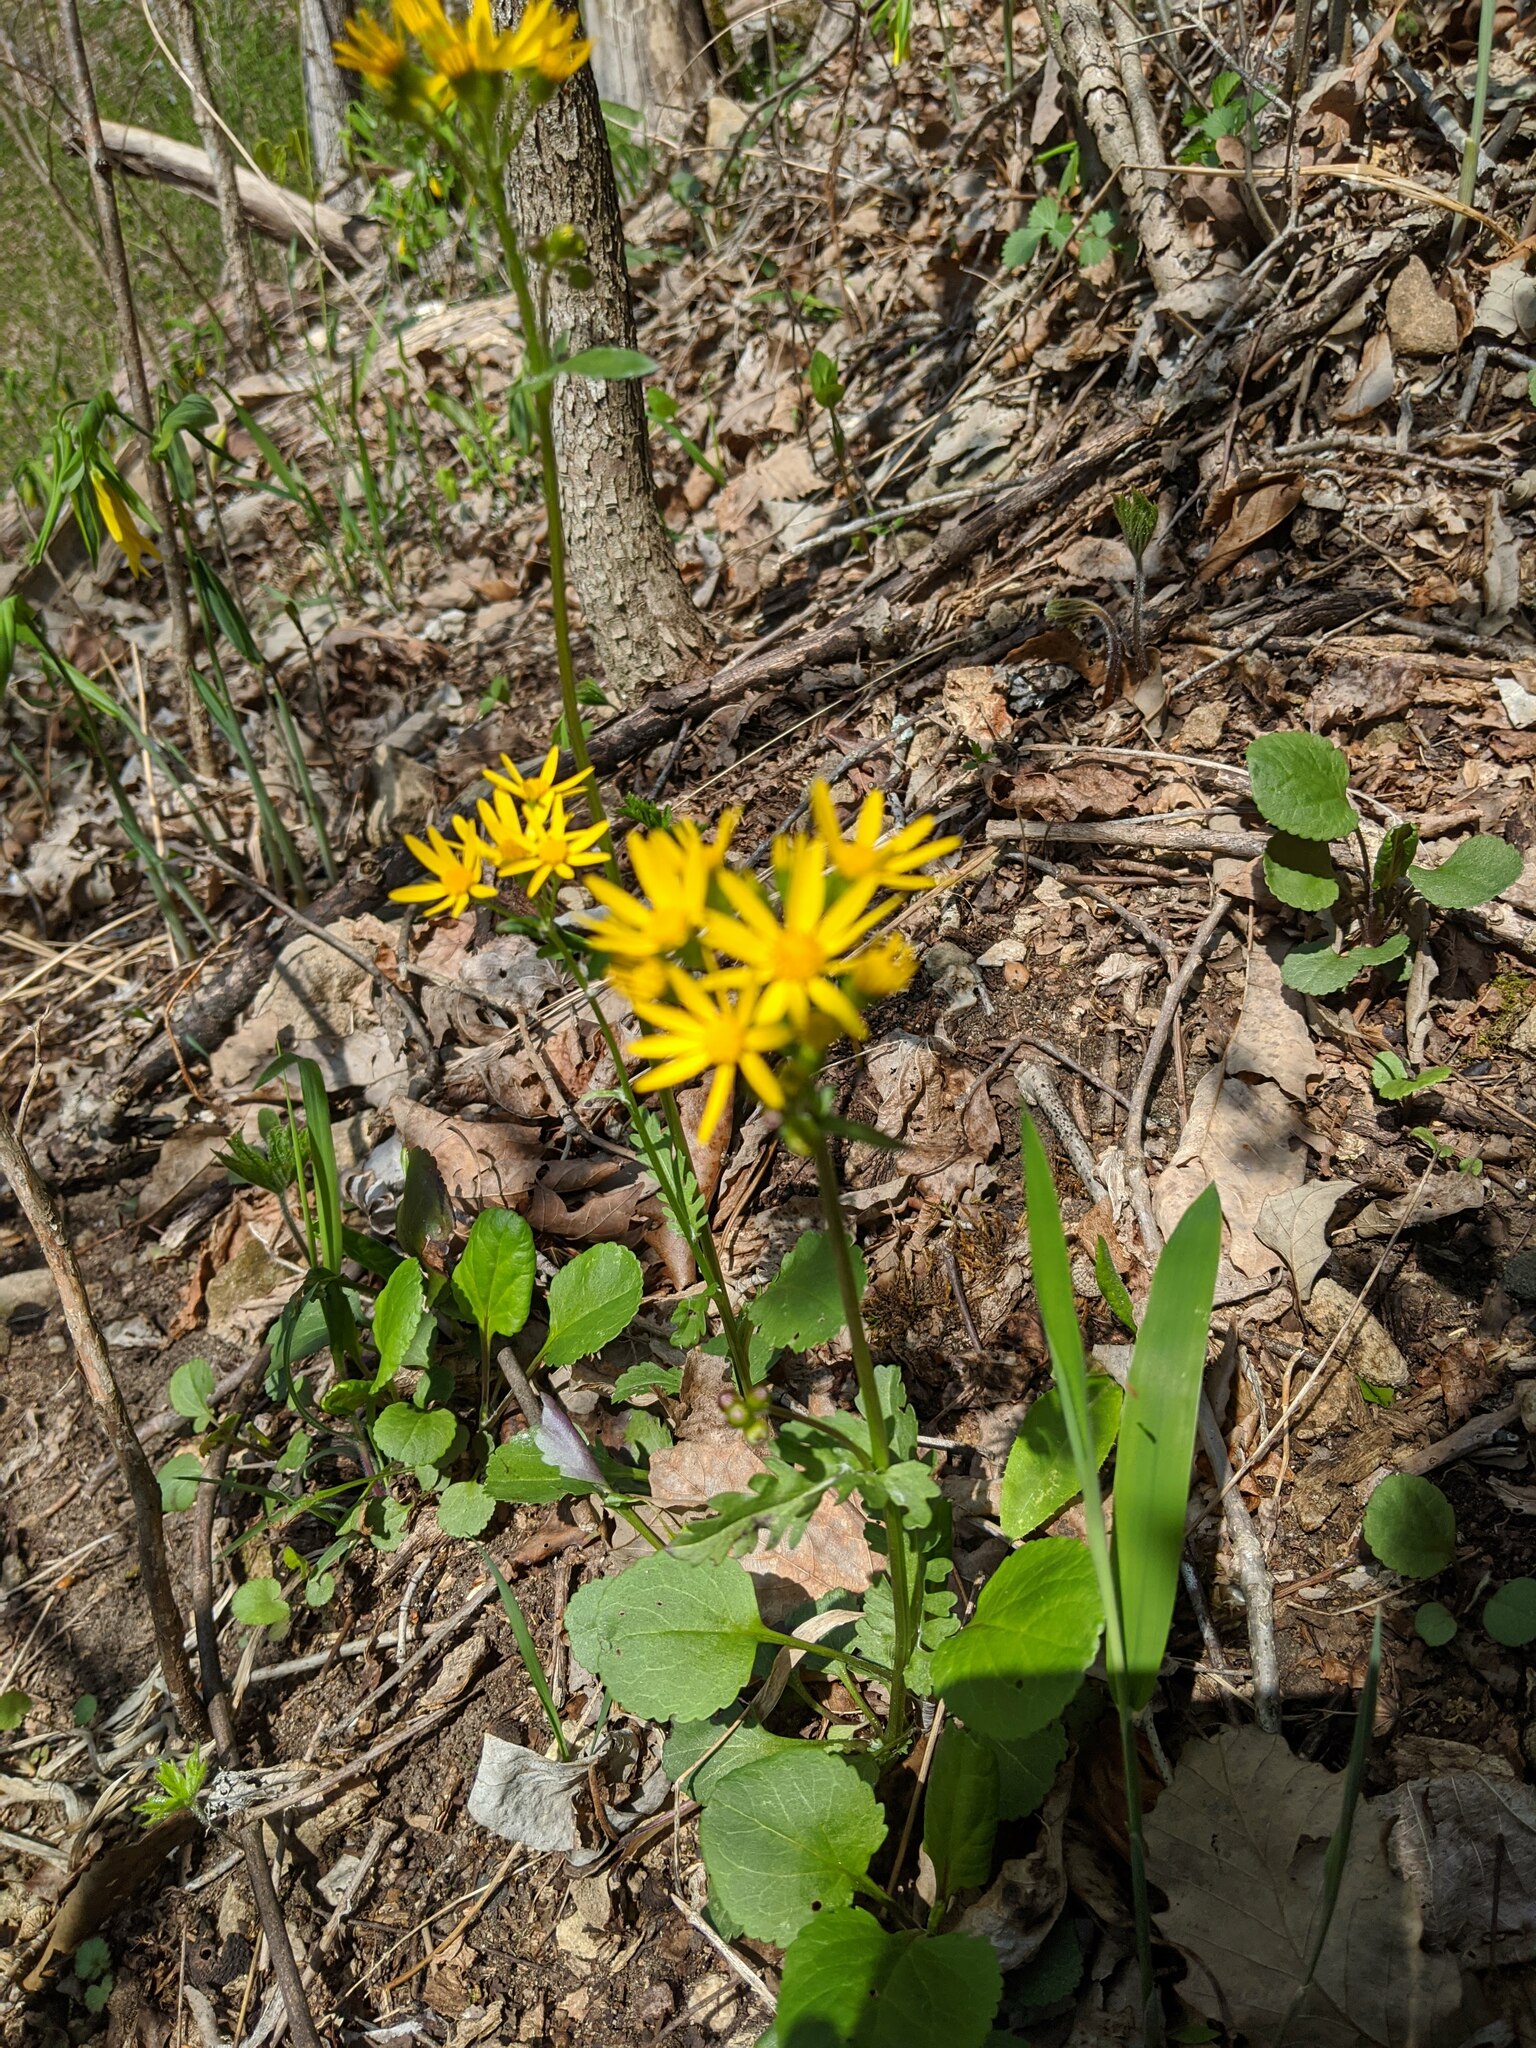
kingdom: Plantae
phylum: Tracheophyta
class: Magnoliopsida
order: Asterales
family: Asteraceae
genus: Packera
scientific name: Packera obovata
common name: Round-leaf ragwort
